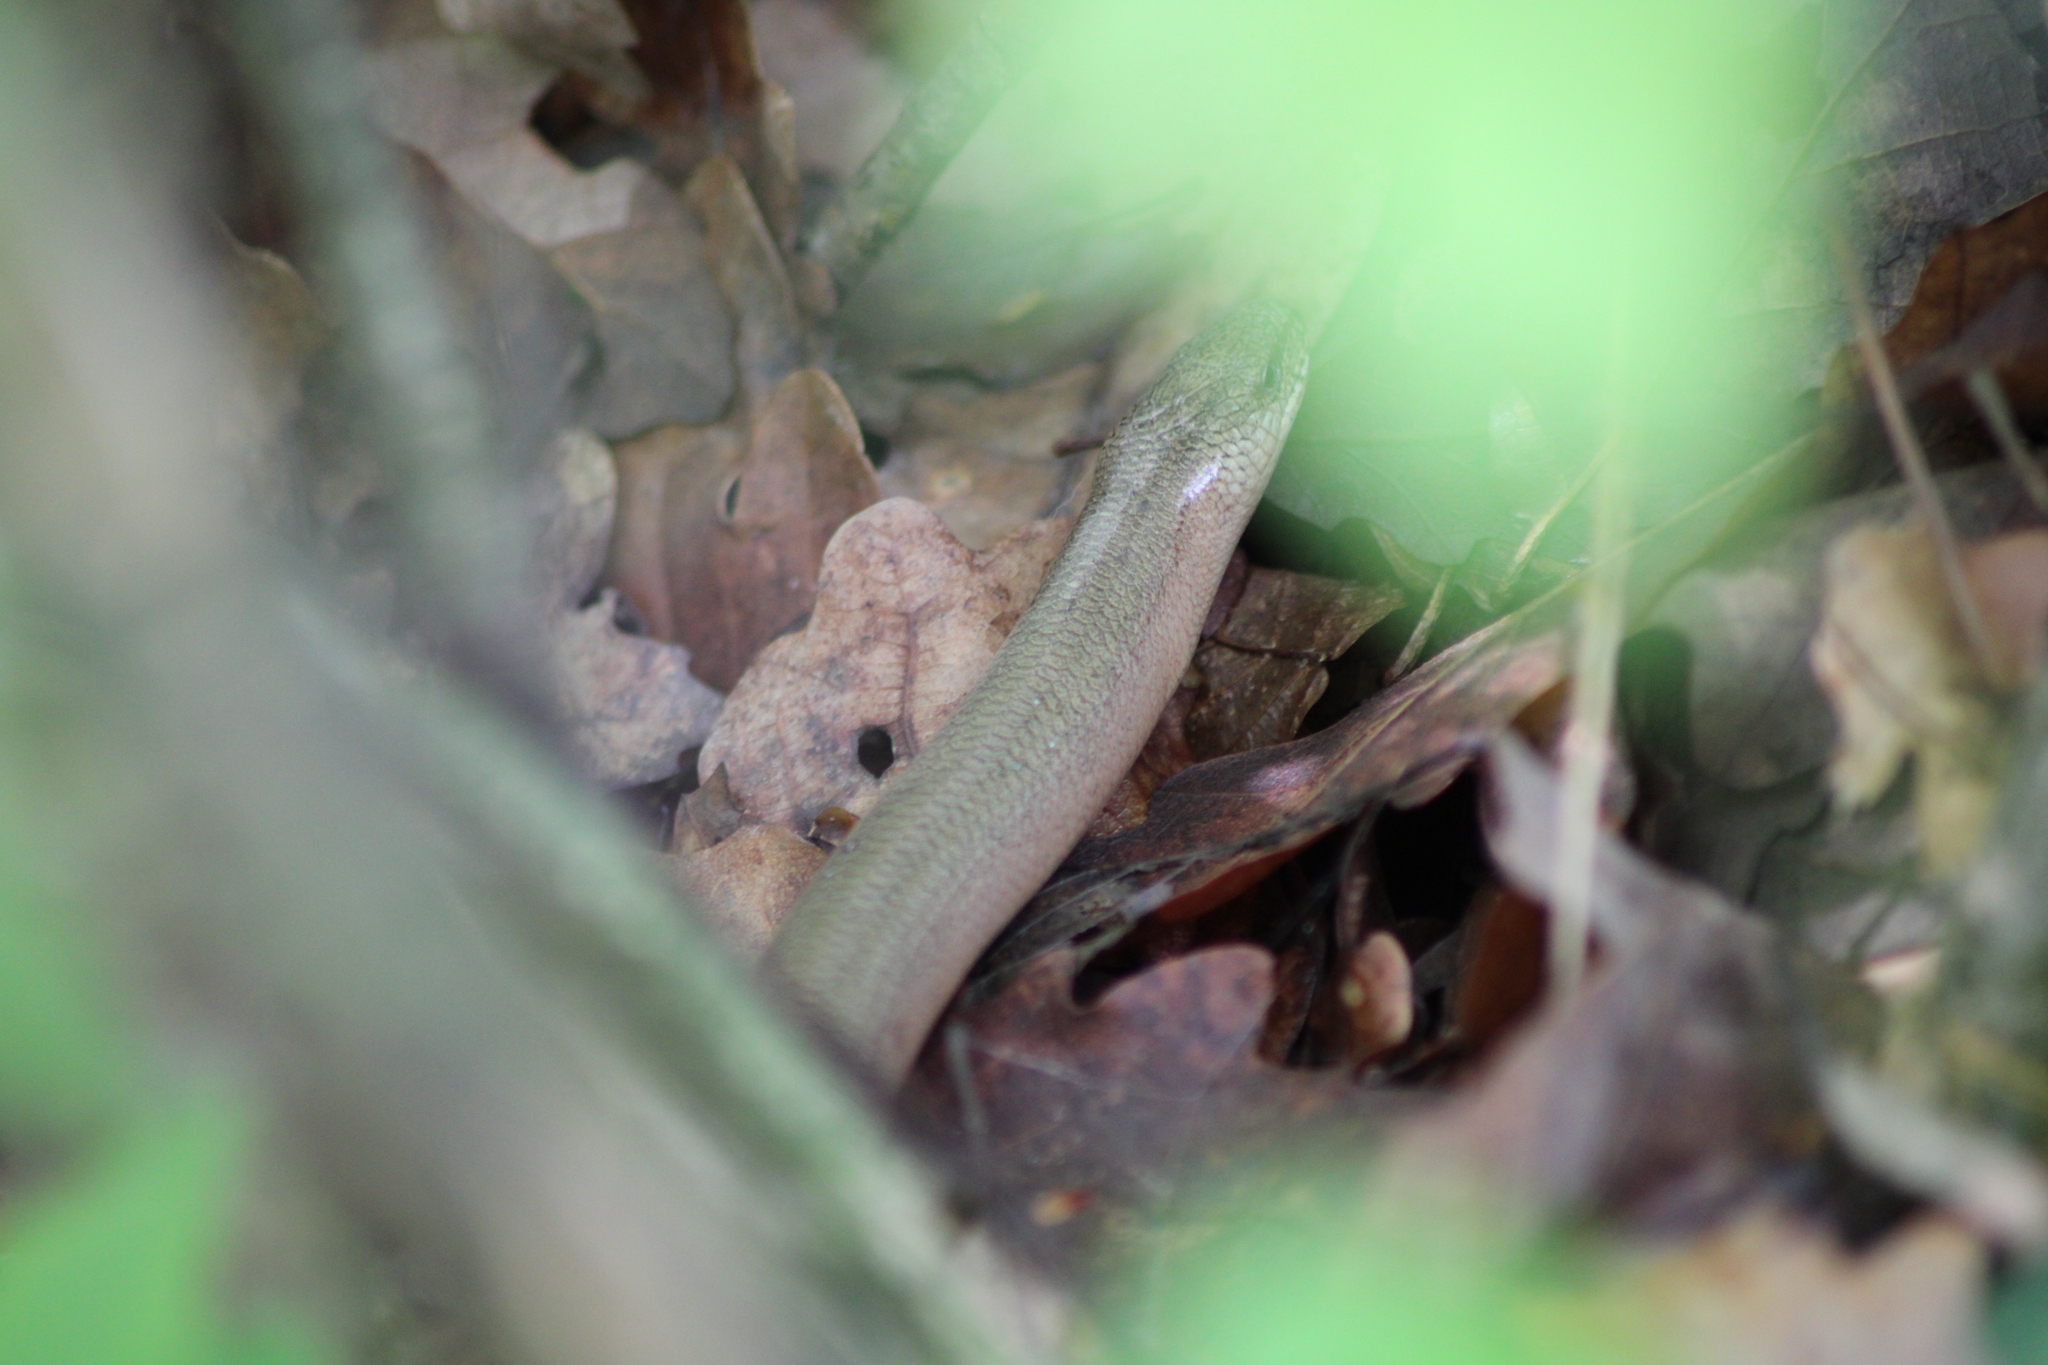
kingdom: Animalia
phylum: Chordata
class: Squamata
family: Anguidae
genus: Anguis
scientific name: Anguis fragilis
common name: Slow worm
